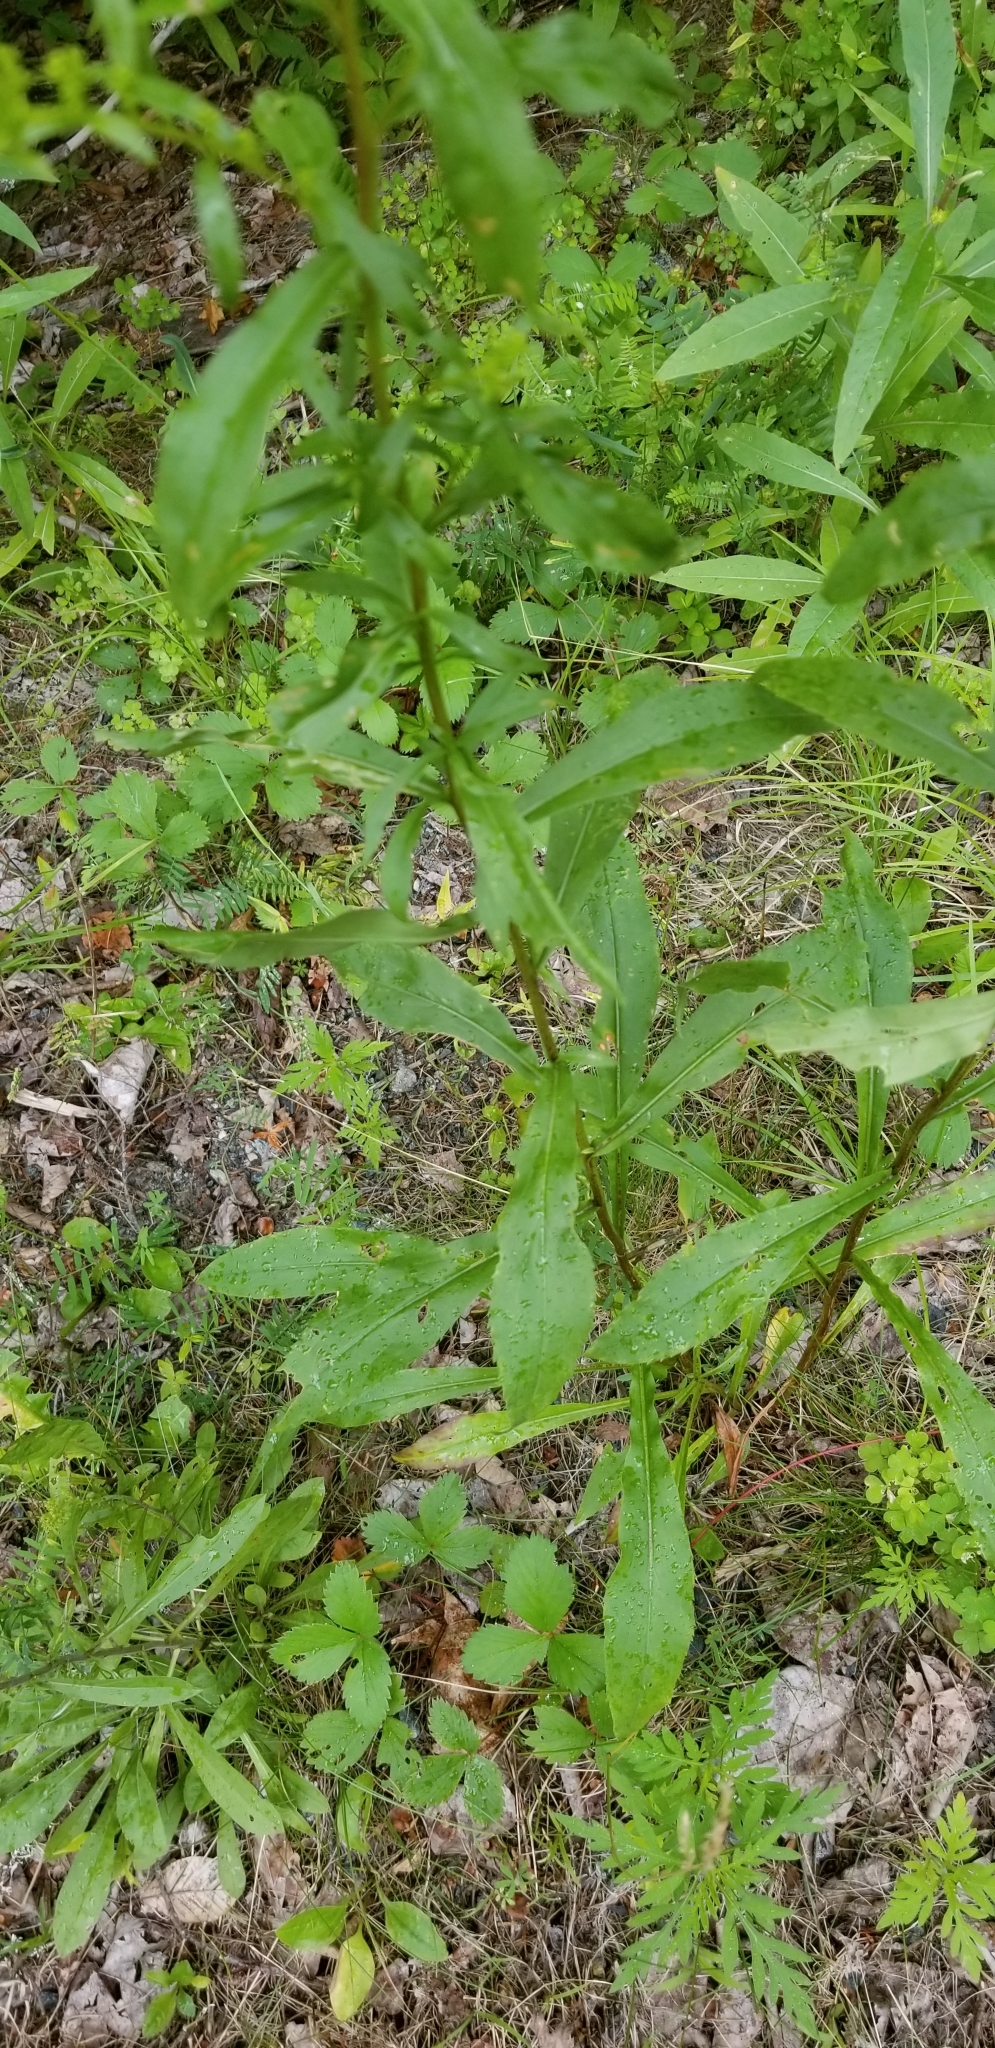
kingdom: Plantae
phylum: Tracheophyta
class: Magnoliopsida
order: Asterales
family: Asteraceae
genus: Solidago
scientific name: Solidago juncea
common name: Early goldenrod
